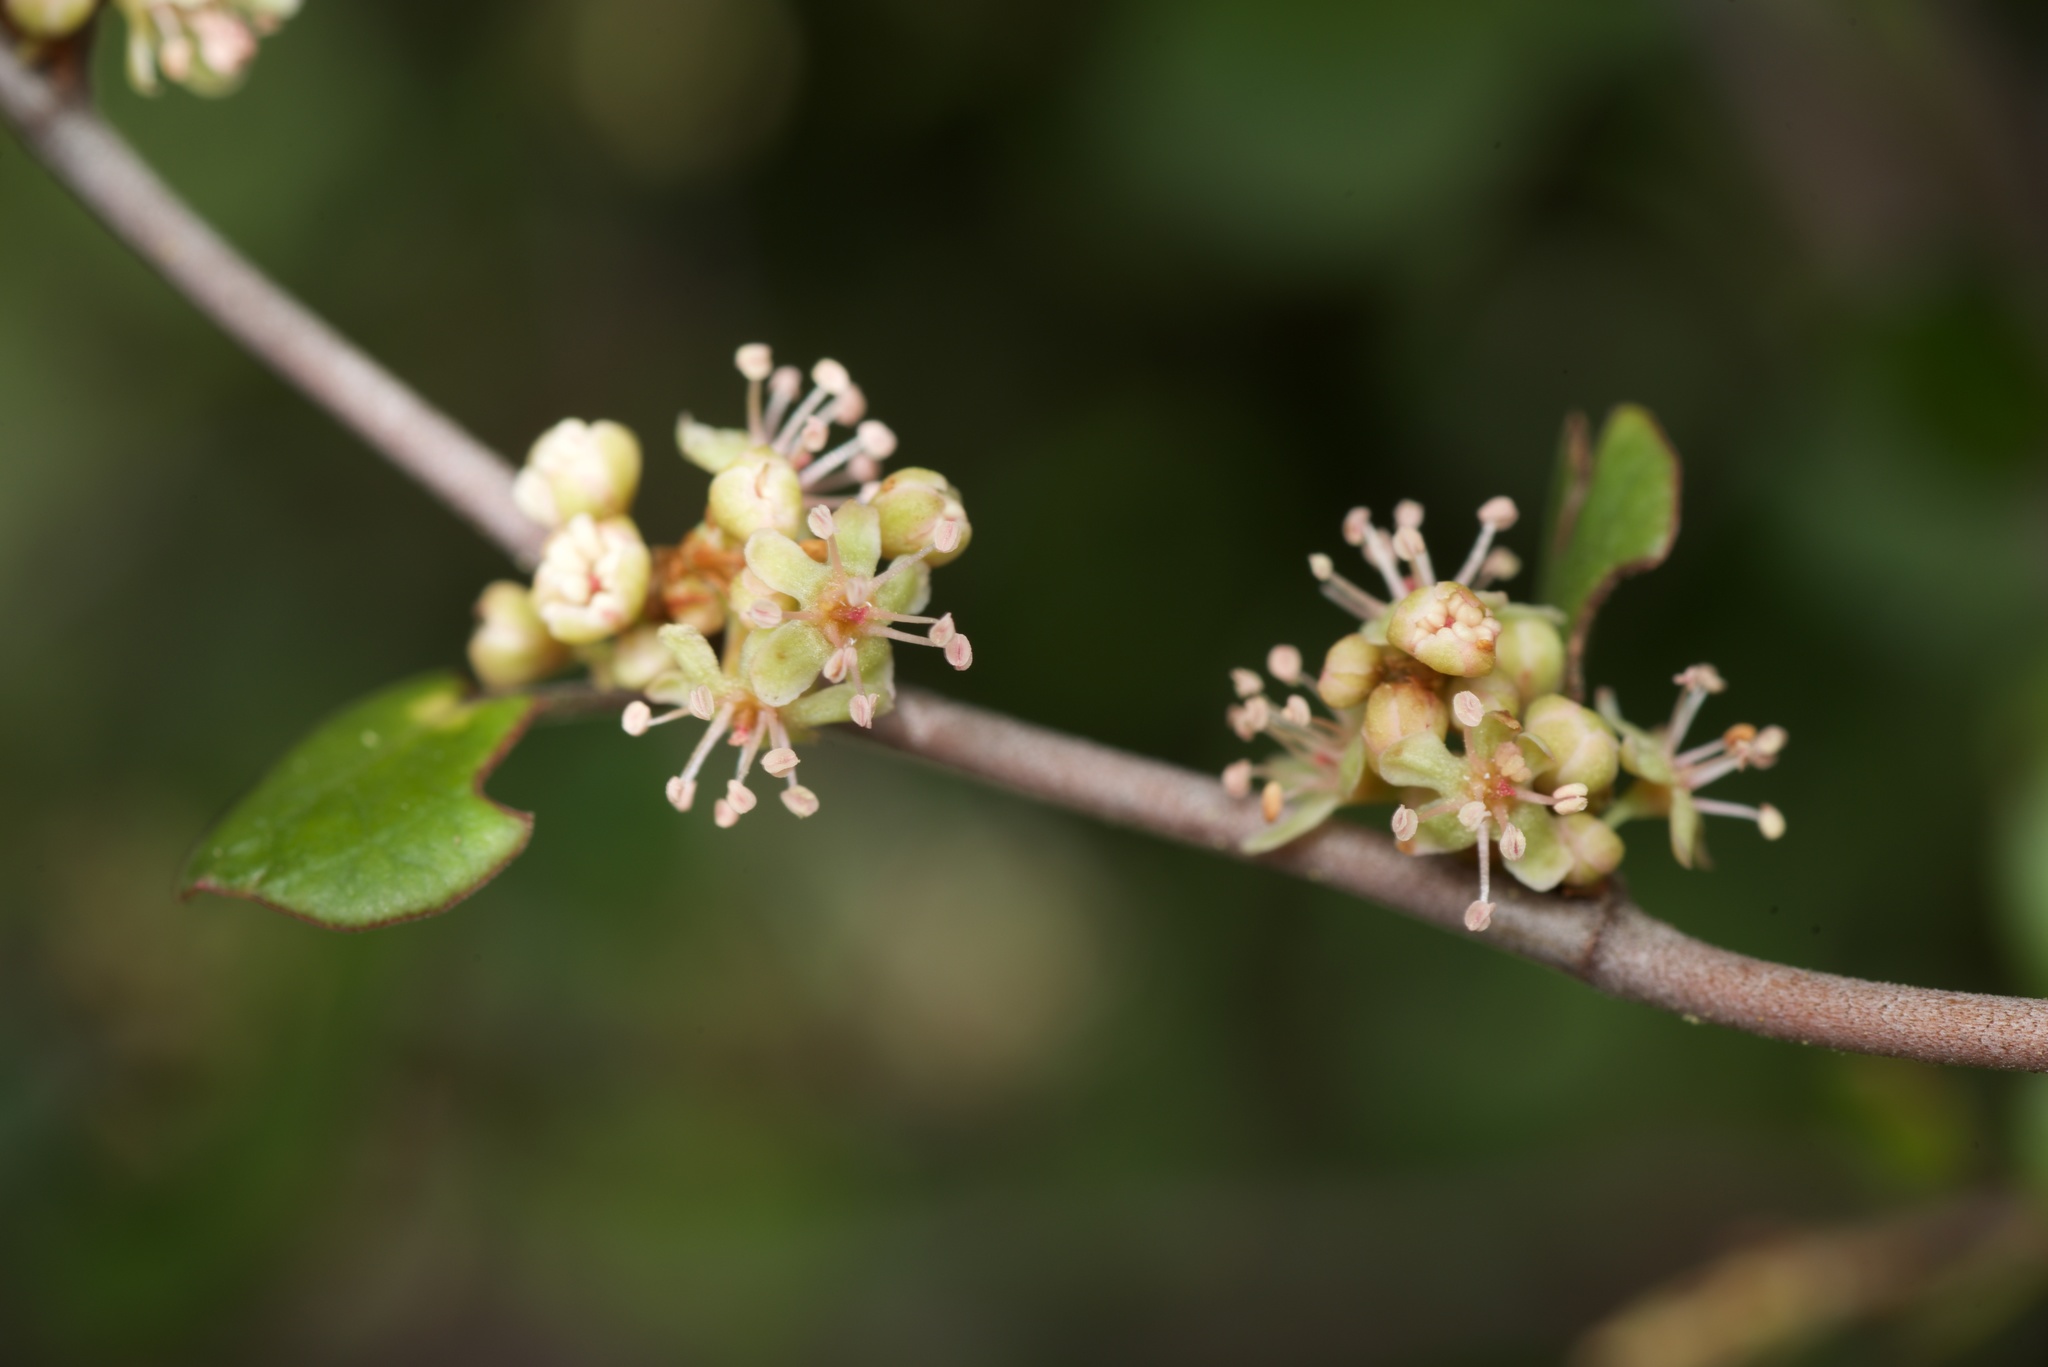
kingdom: Plantae
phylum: Tracheophyta
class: Magnoliopsida
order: Caryophyllales
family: Polygonaceae
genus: Muehlenbeckia
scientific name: Muehlenbeckia complexa
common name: Wireplant
